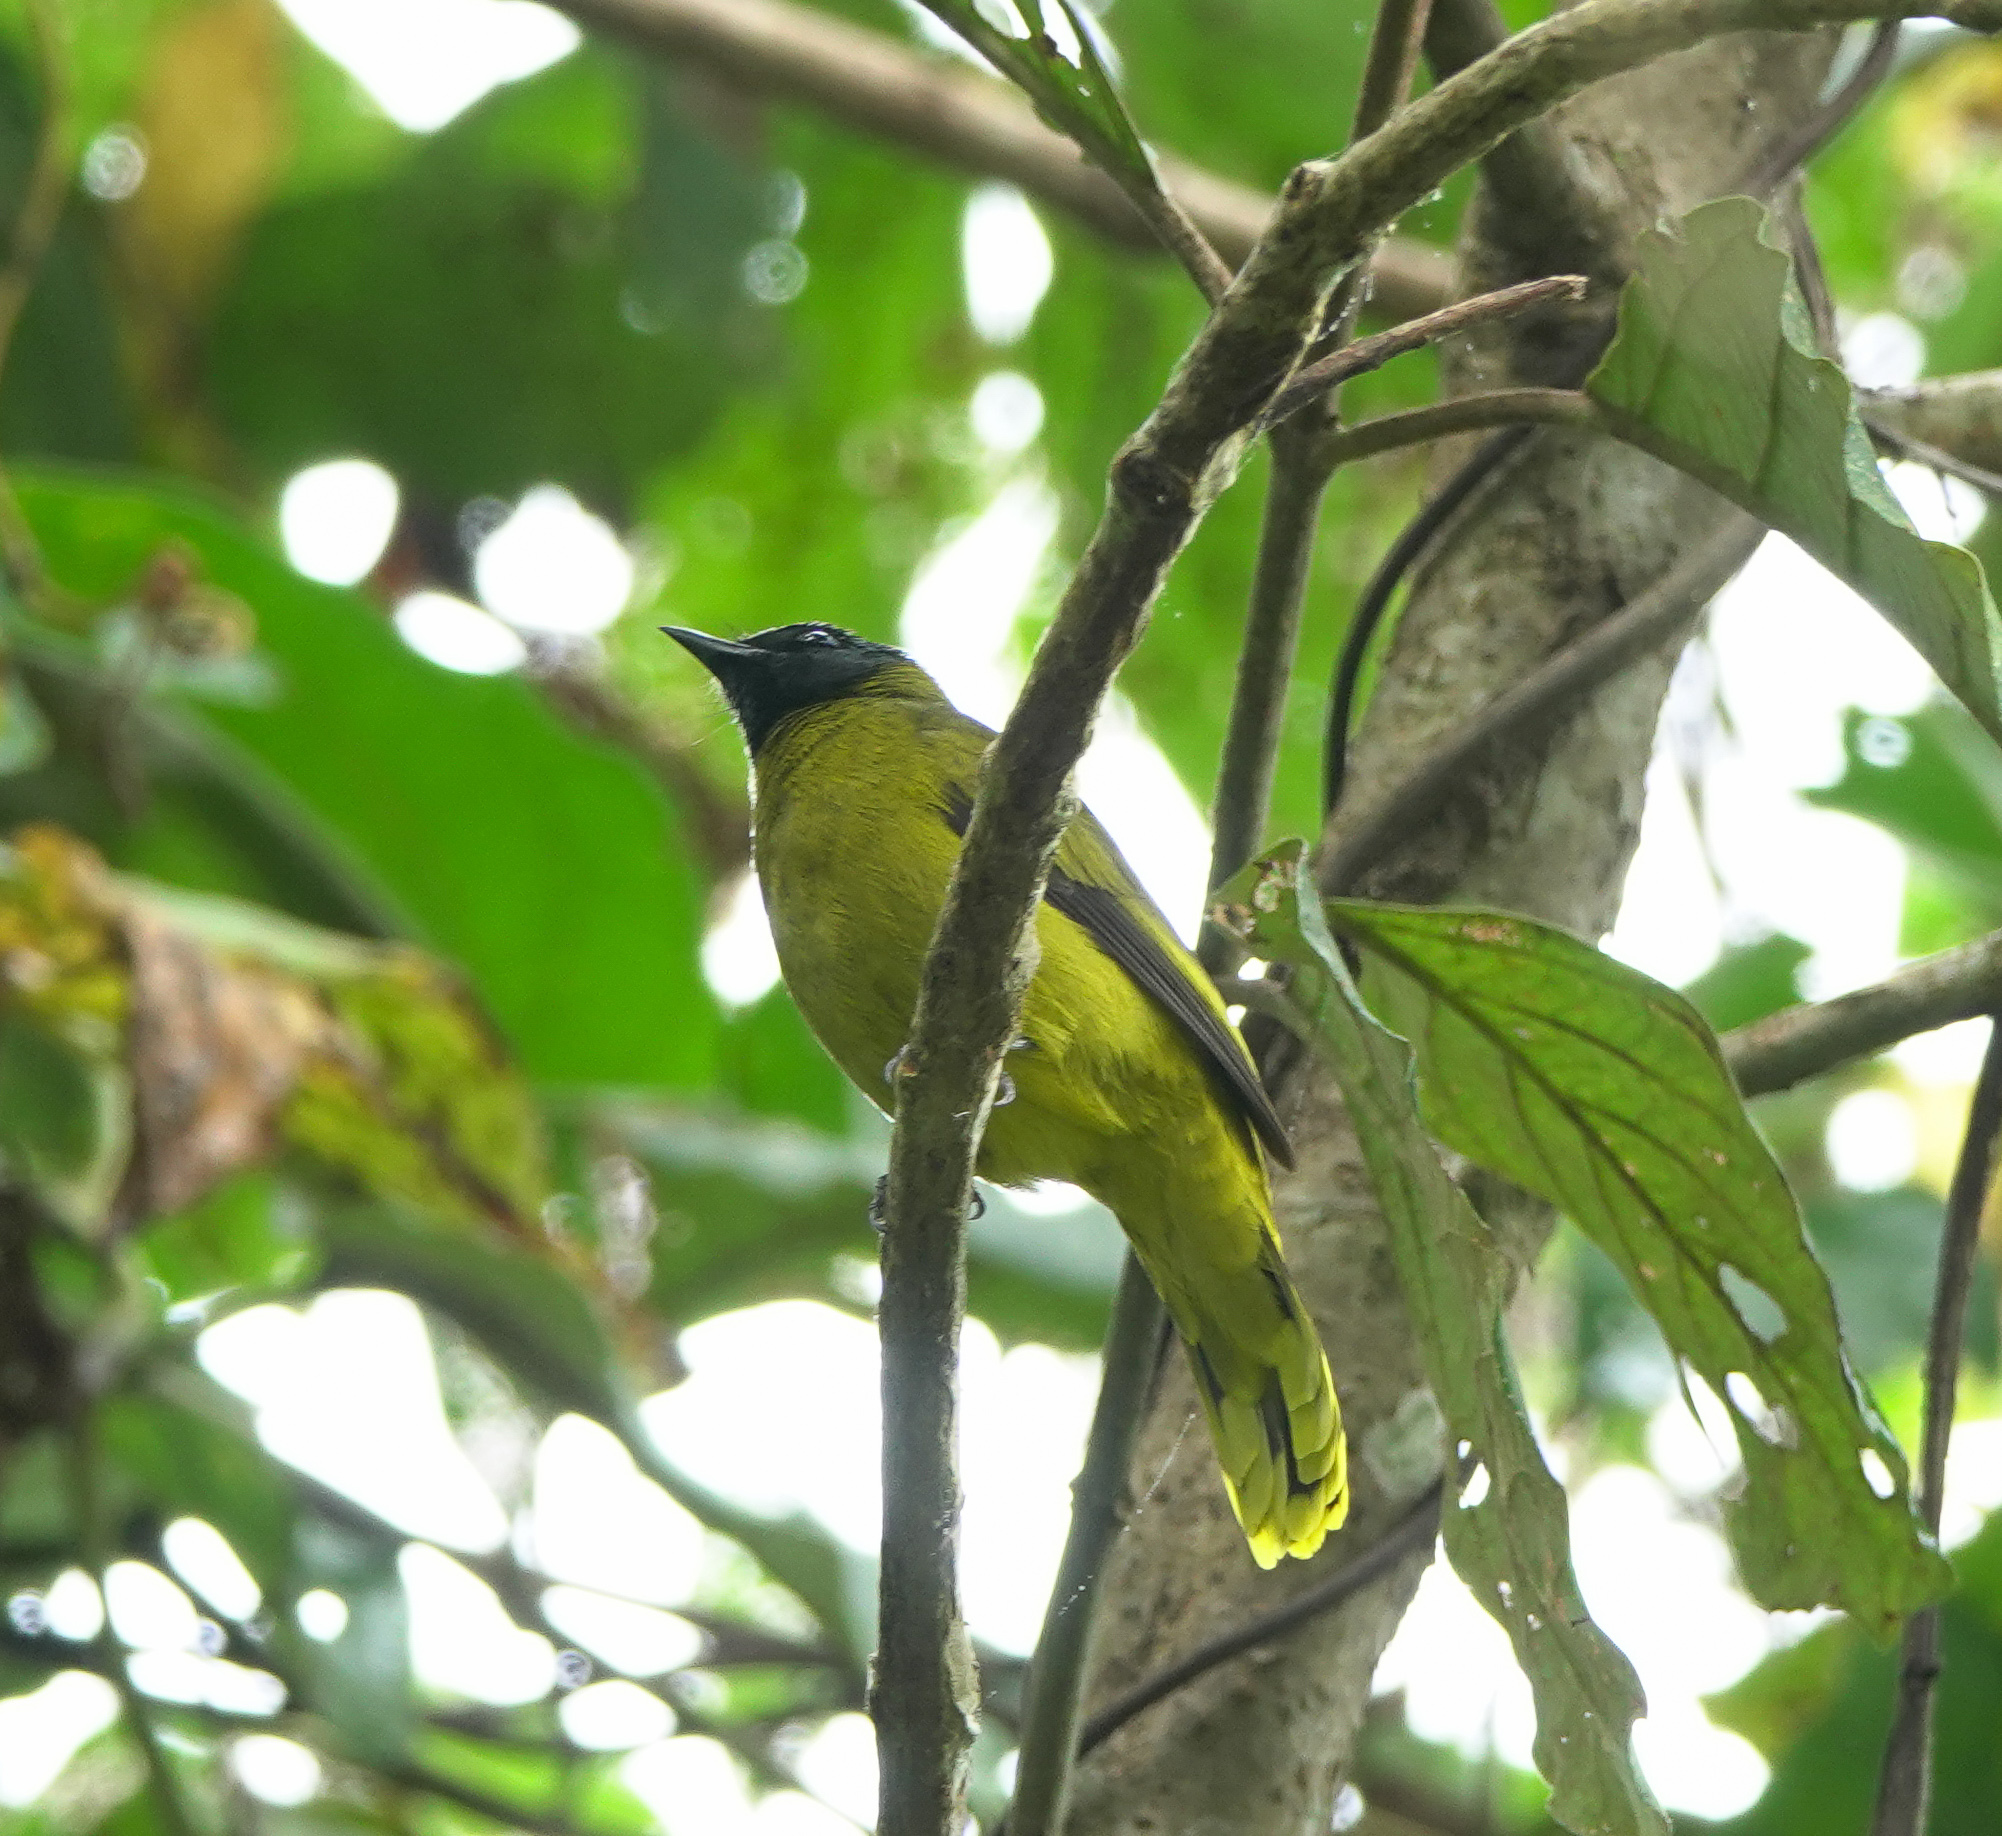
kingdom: Animalia
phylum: Chordata
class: Aves
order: Passeriformes
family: Pycnonotidae
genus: Microtarsus
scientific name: Microtarsus
